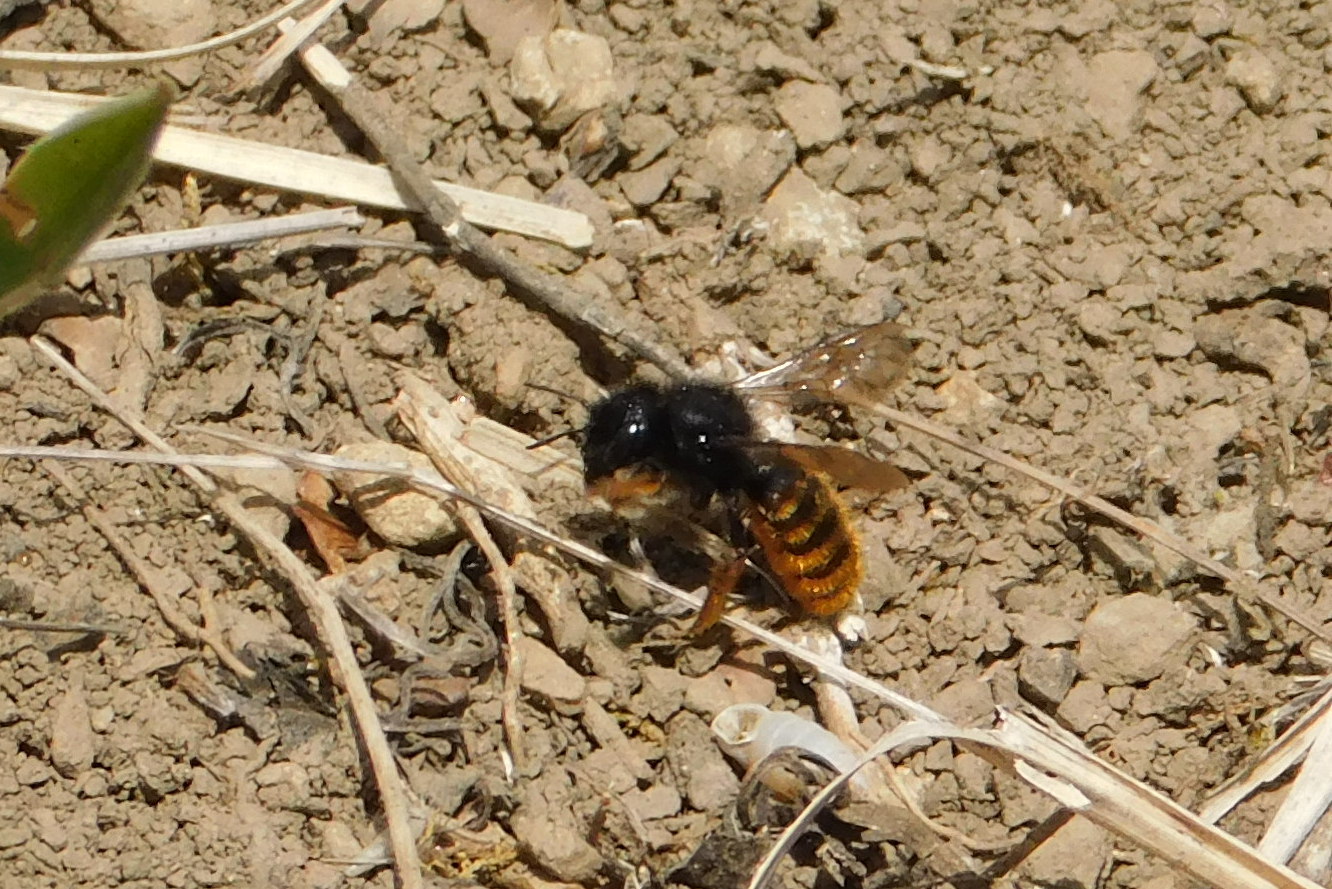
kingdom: Animalia
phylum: Arthropoda
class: Insecta
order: Hymenoptera
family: Megachilidae
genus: Osmia
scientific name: Osmia bicolor
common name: Red-tailed mason bee
